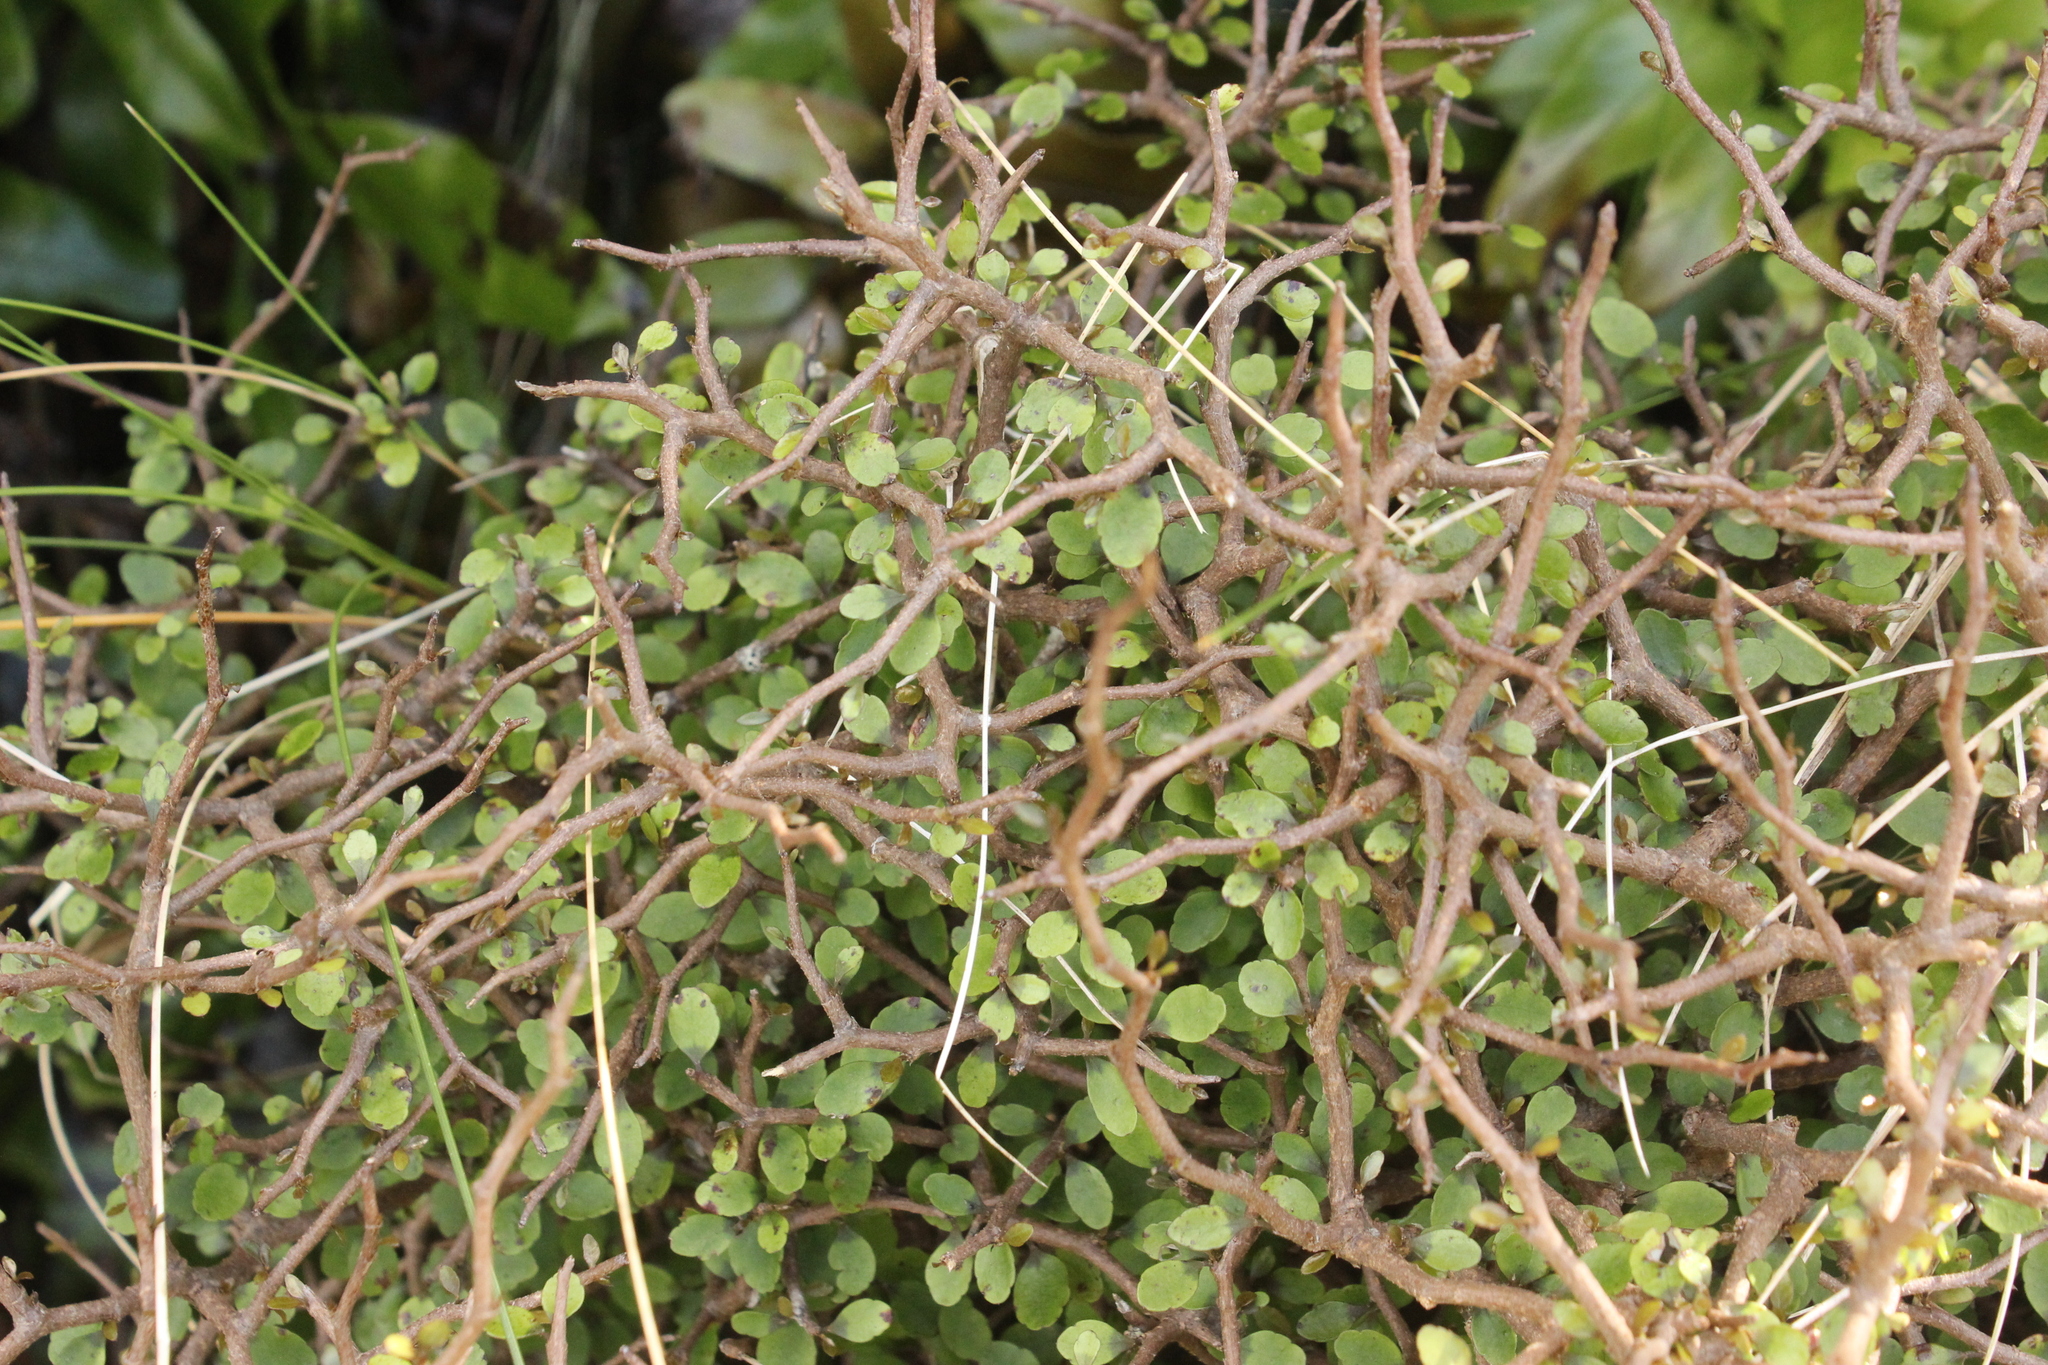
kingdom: Plantae
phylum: Tracheophyta
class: Magnoliopsida
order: Apiales
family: Araliaceae
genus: Raukaua
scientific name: Raukaua anomalus
